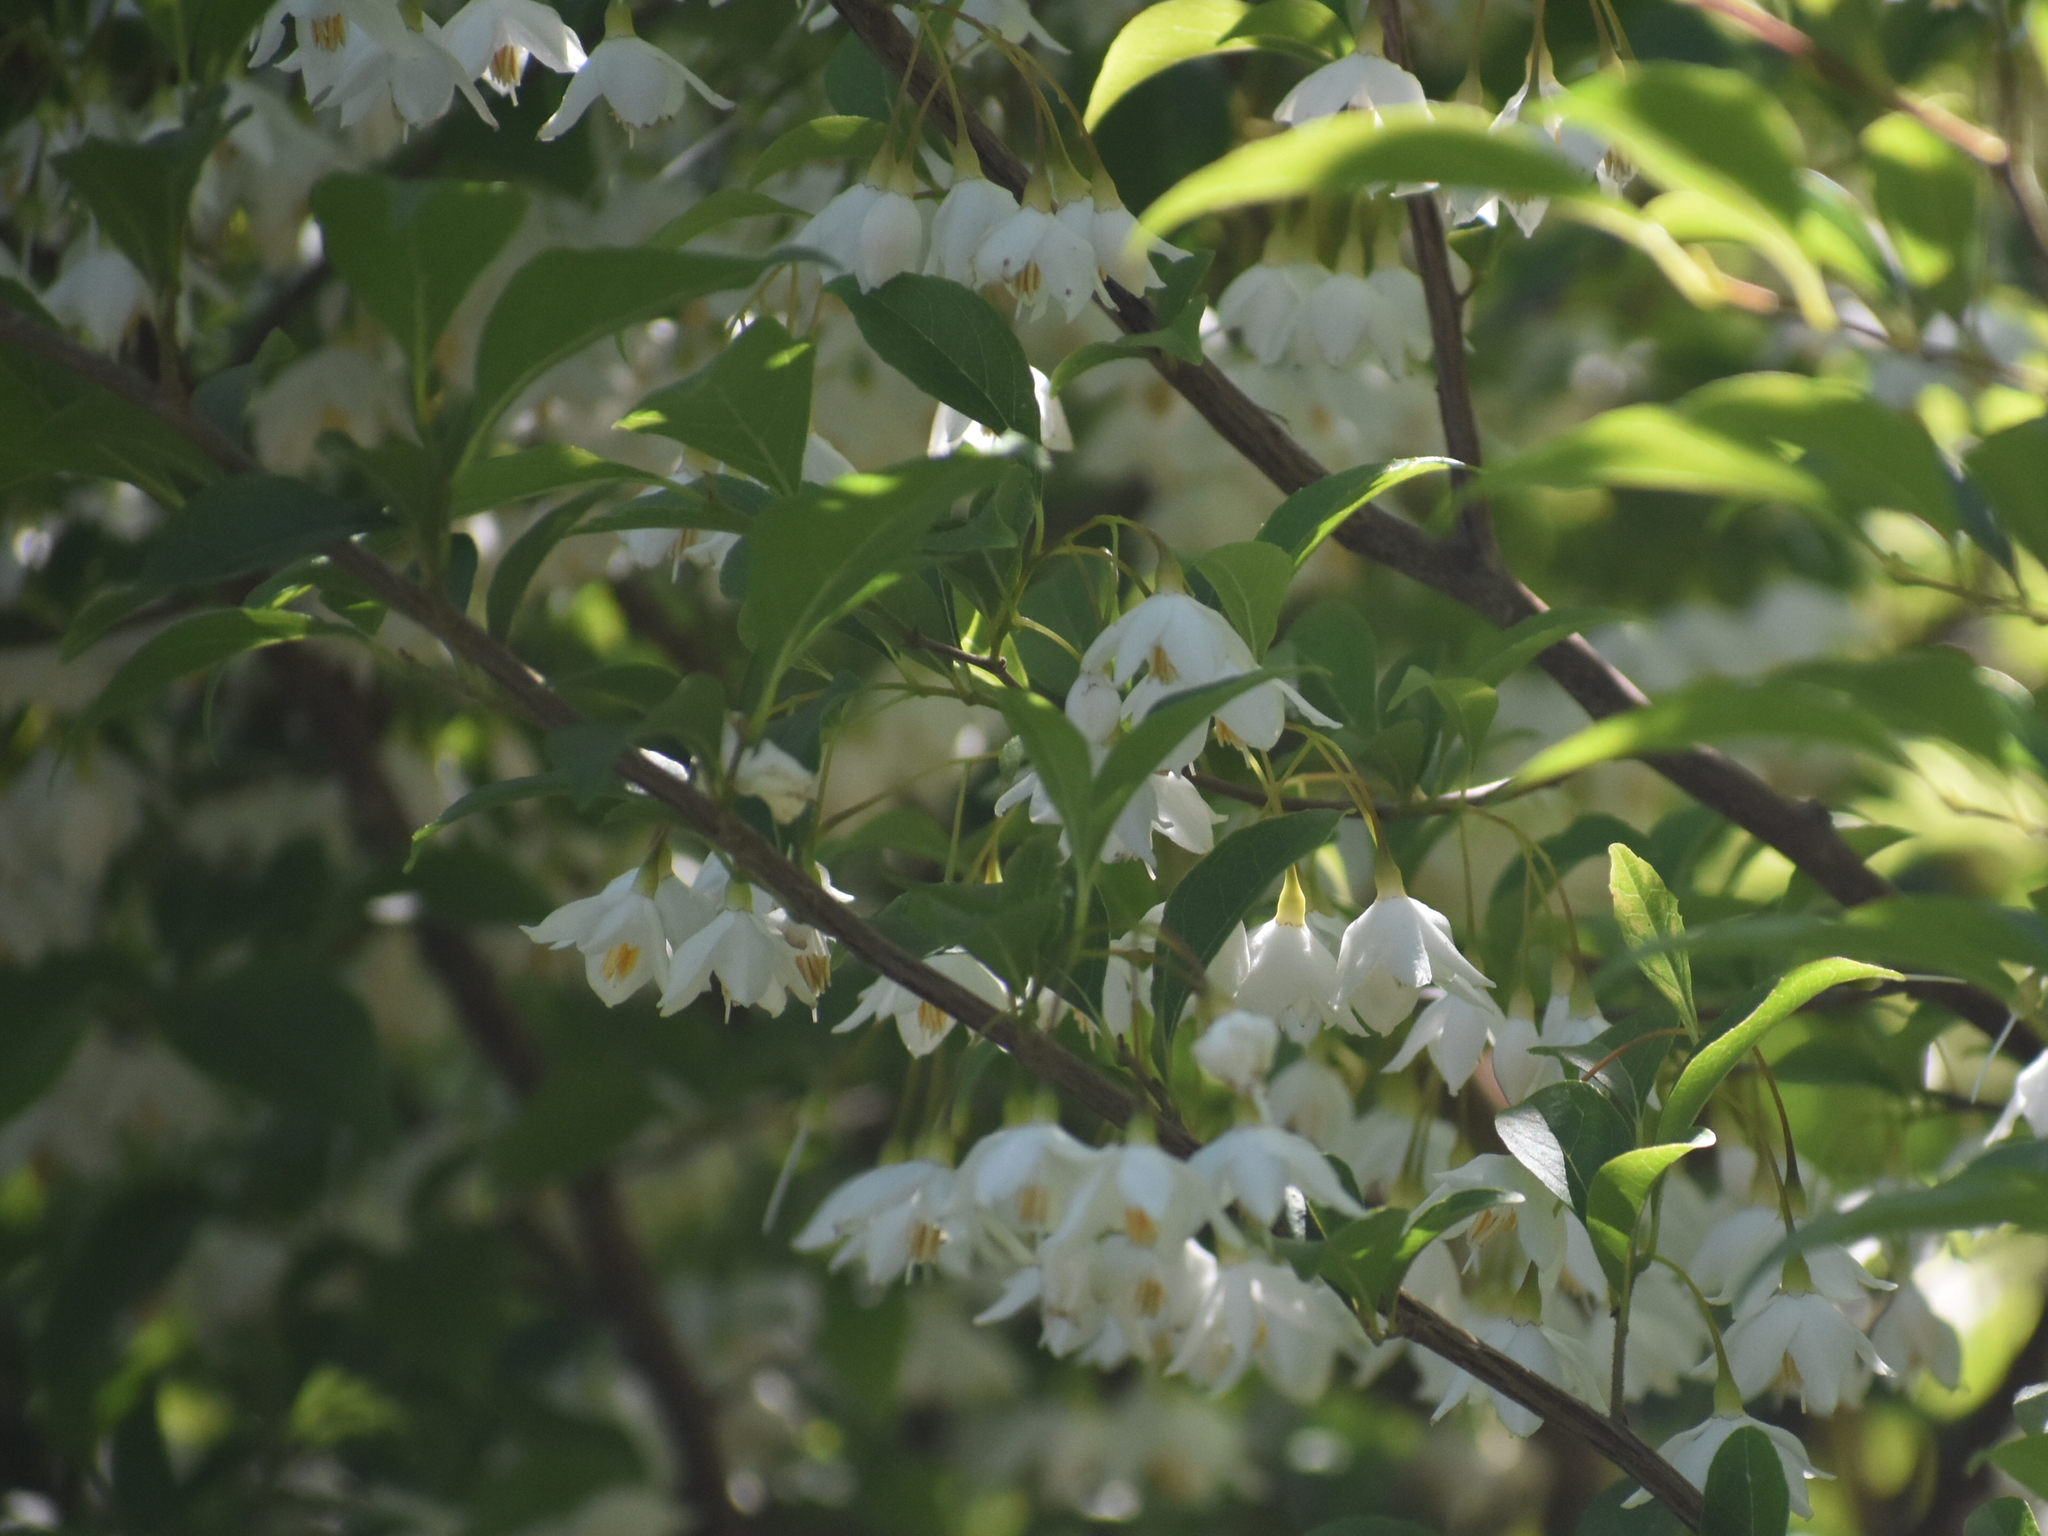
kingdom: Plantae
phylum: Tracheophyta
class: Magnoliopsida
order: Ericales
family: Styracaceae
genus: Styrax
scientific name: Styrax japonicus
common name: Japanese snowbell
